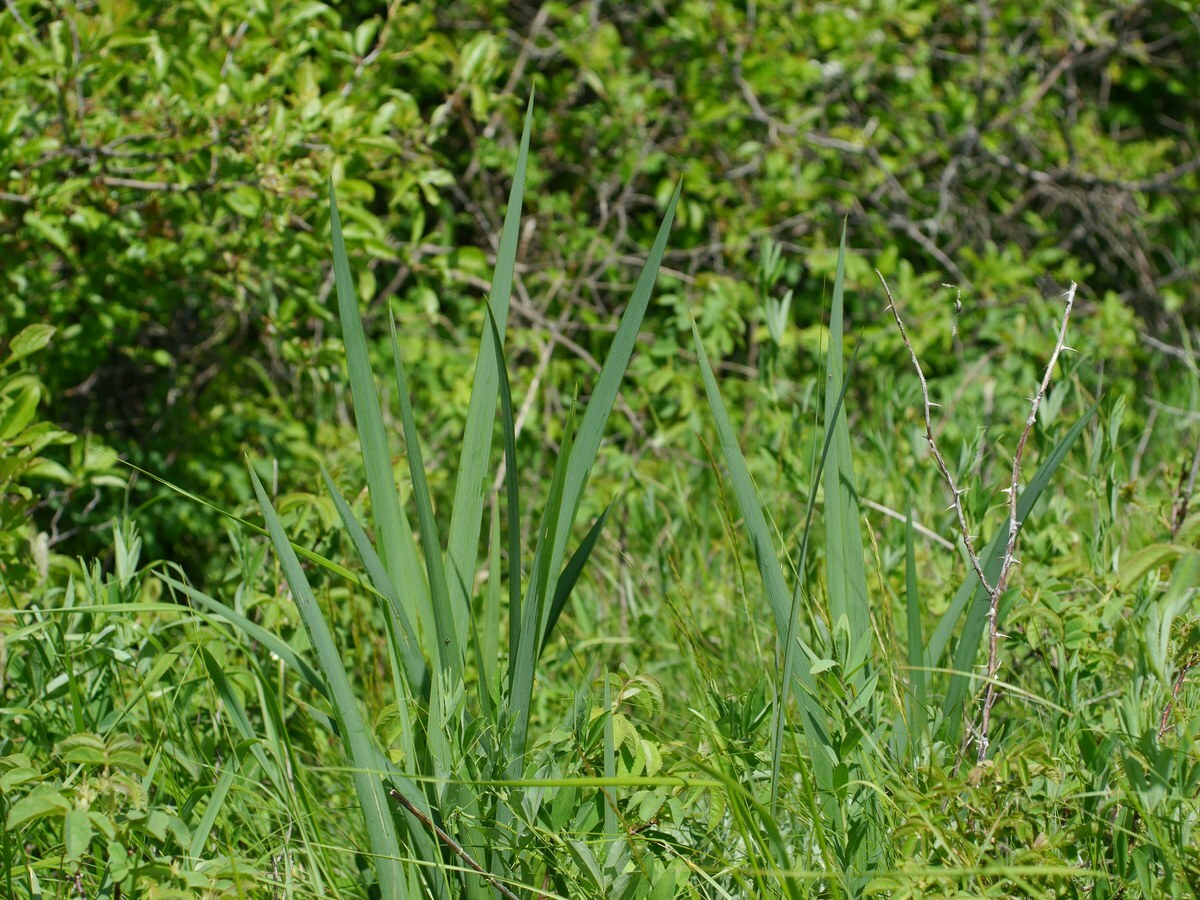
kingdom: Plantae
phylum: Tracheophyta
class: Liliopsida
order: Asparagales
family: Iridaceae
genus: Iris
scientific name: Iris halophila
